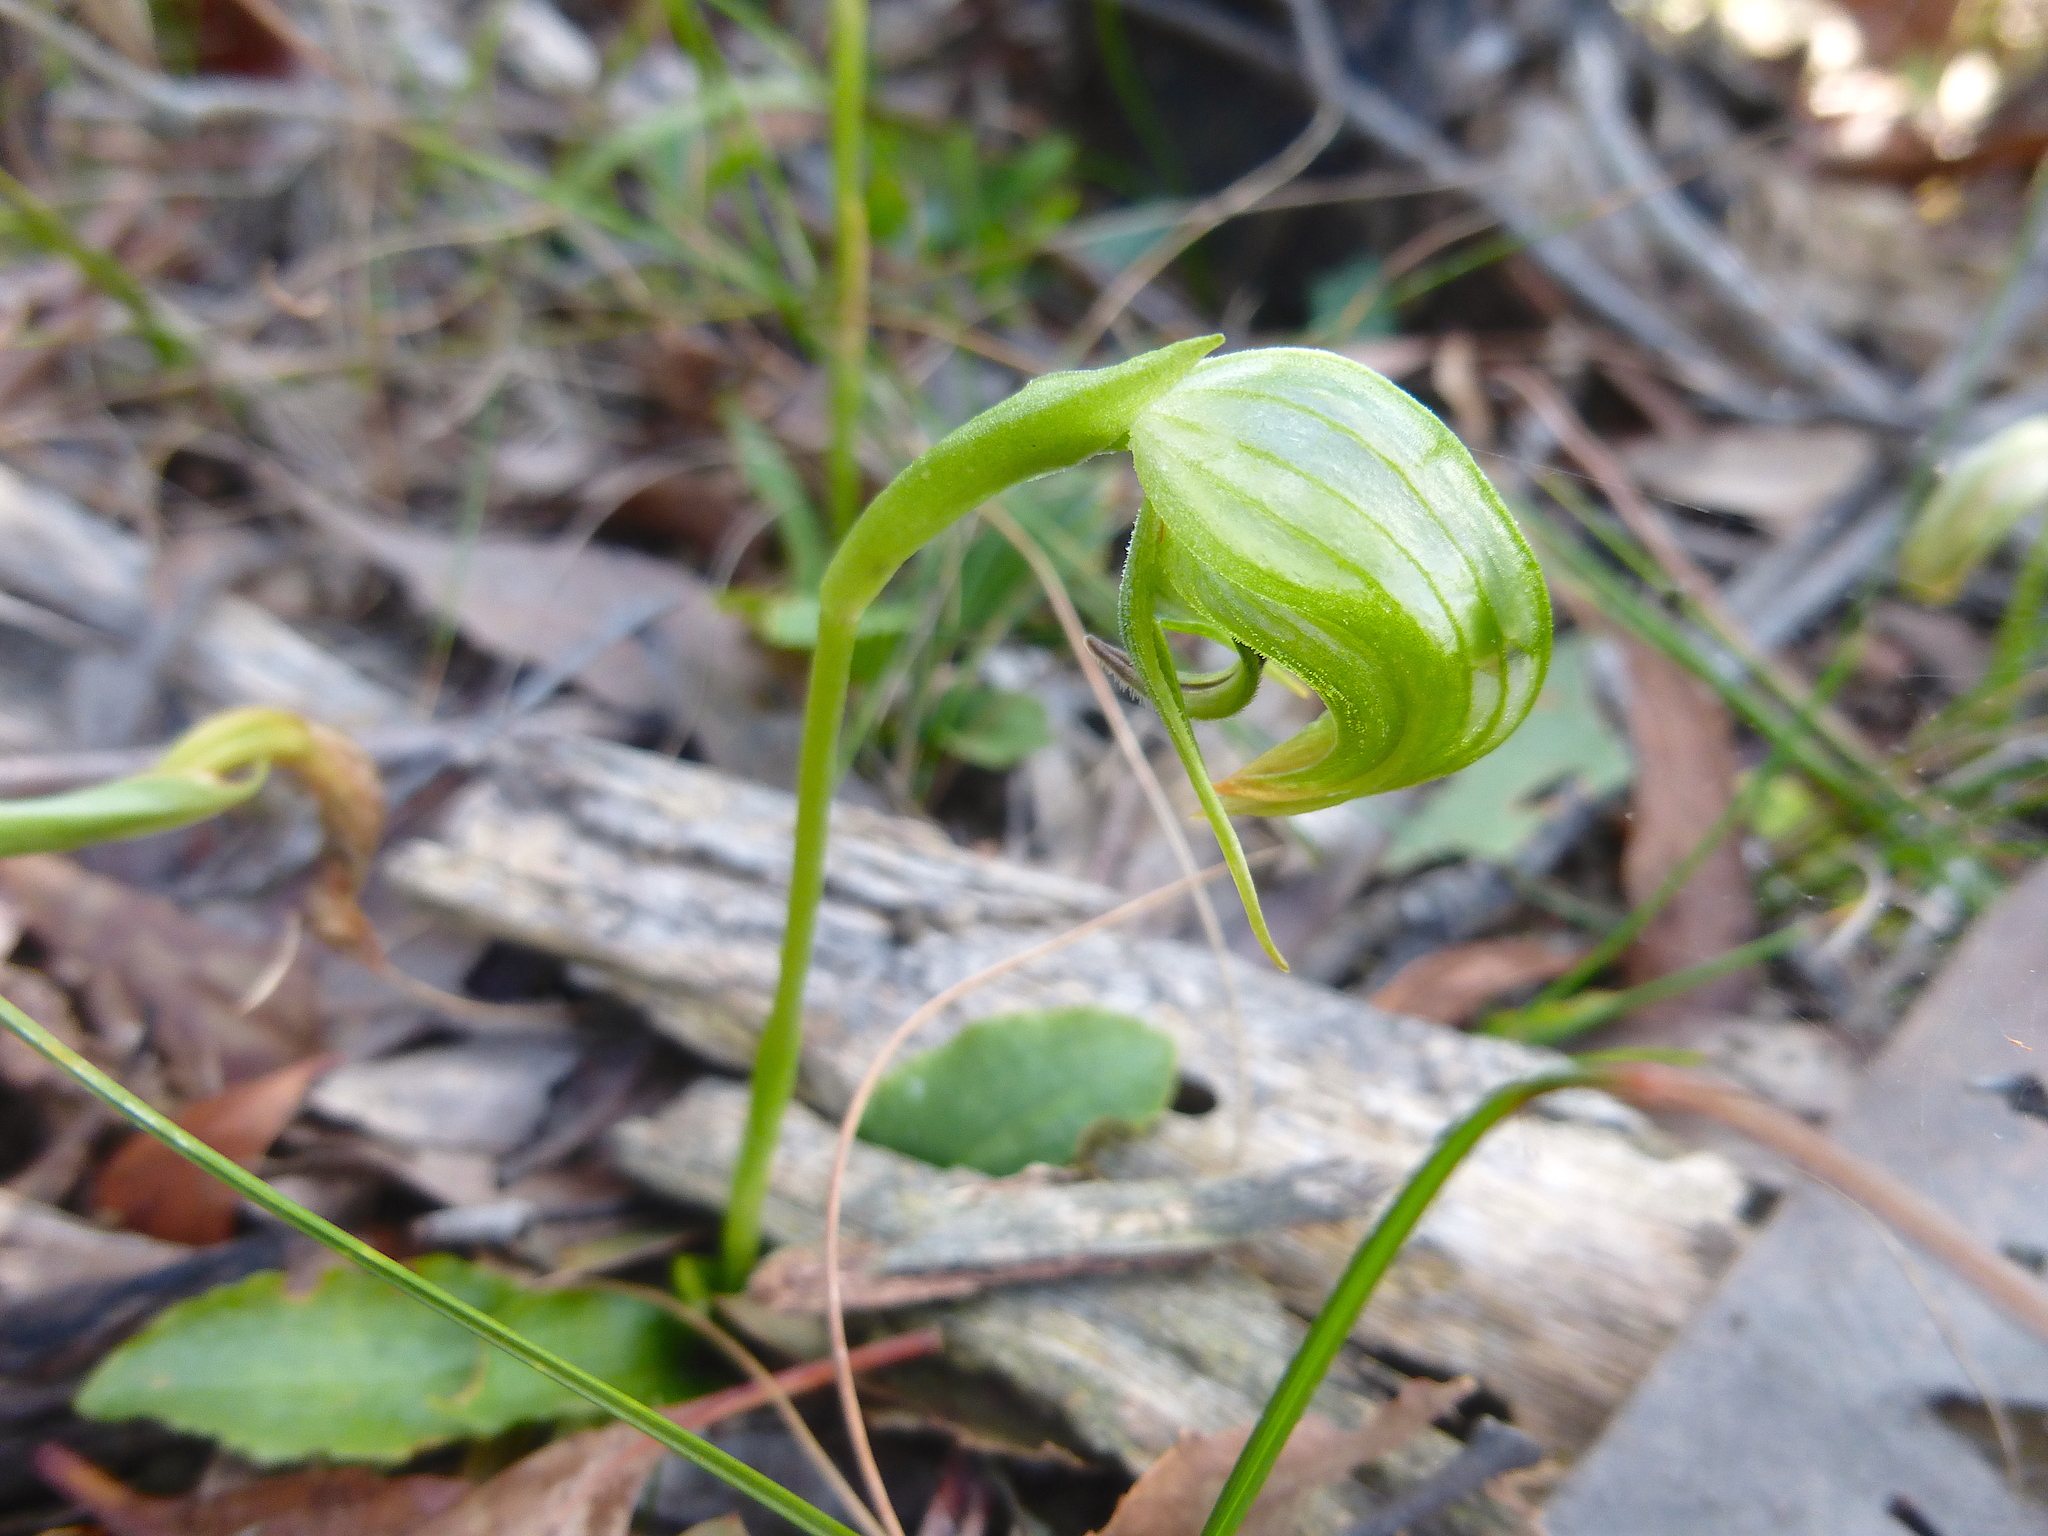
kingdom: Plantae
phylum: Tracheophyta
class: Liliopsida
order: Asparagales
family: Orchidaceae
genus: Pterostylis
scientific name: Pterostylis nutans
